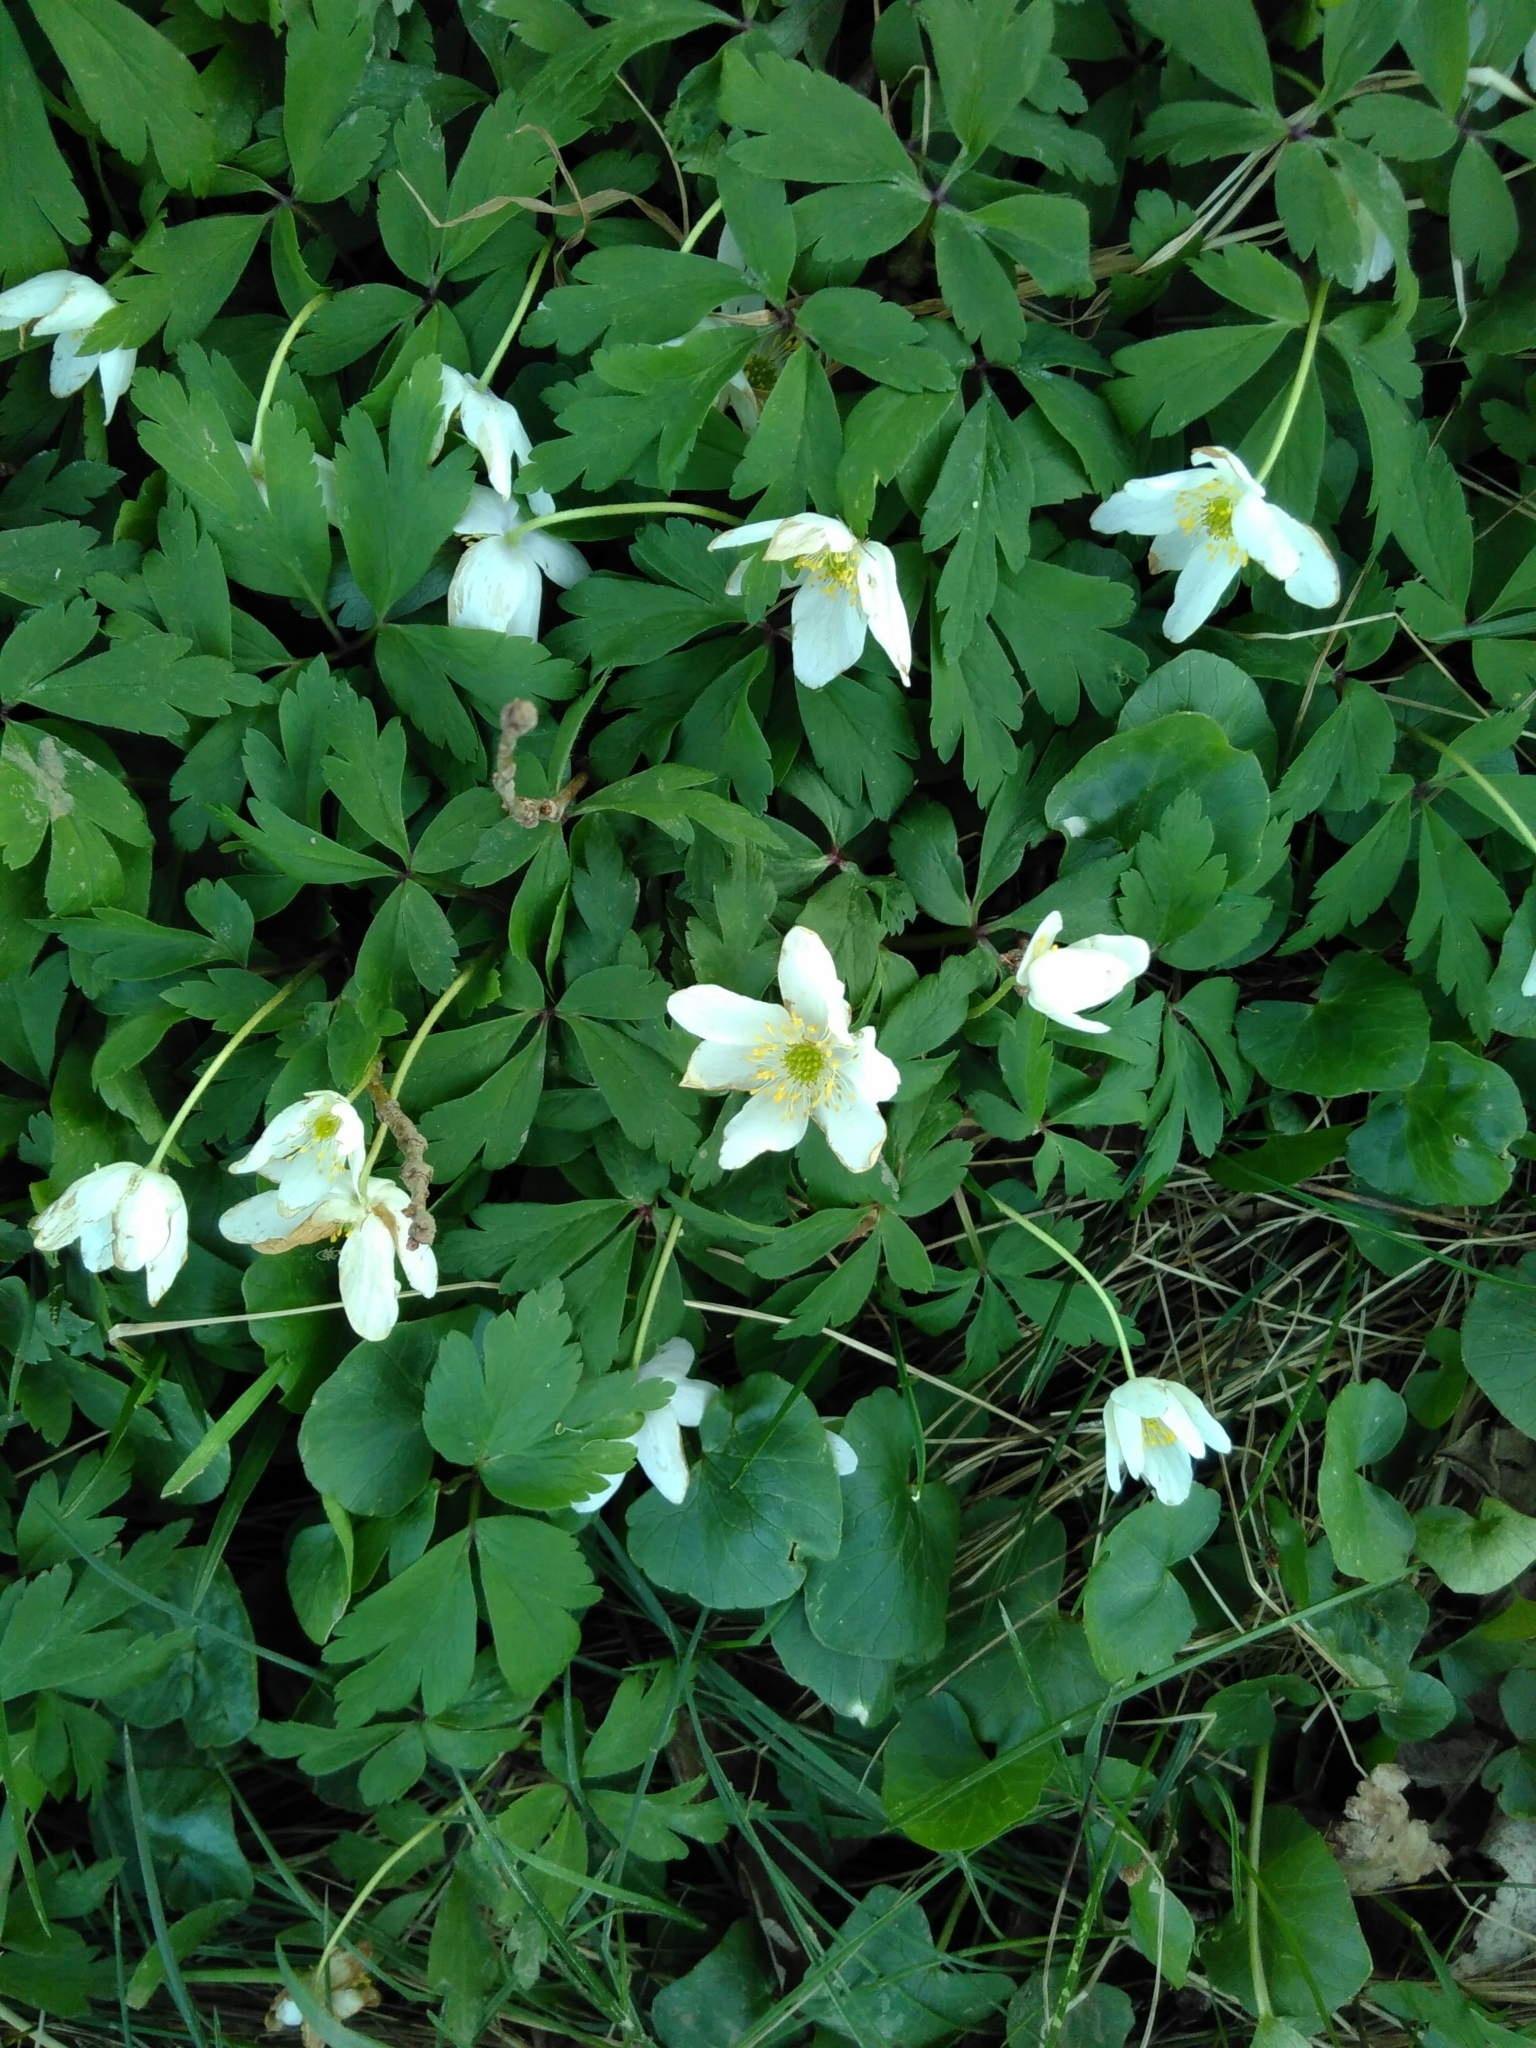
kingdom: Plantae
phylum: Tracheophyta
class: Magnoliopsida
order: Ranunculales
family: Ranunculaceae
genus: Anemone
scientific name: Anemone nemorosa
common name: Wood anemone
